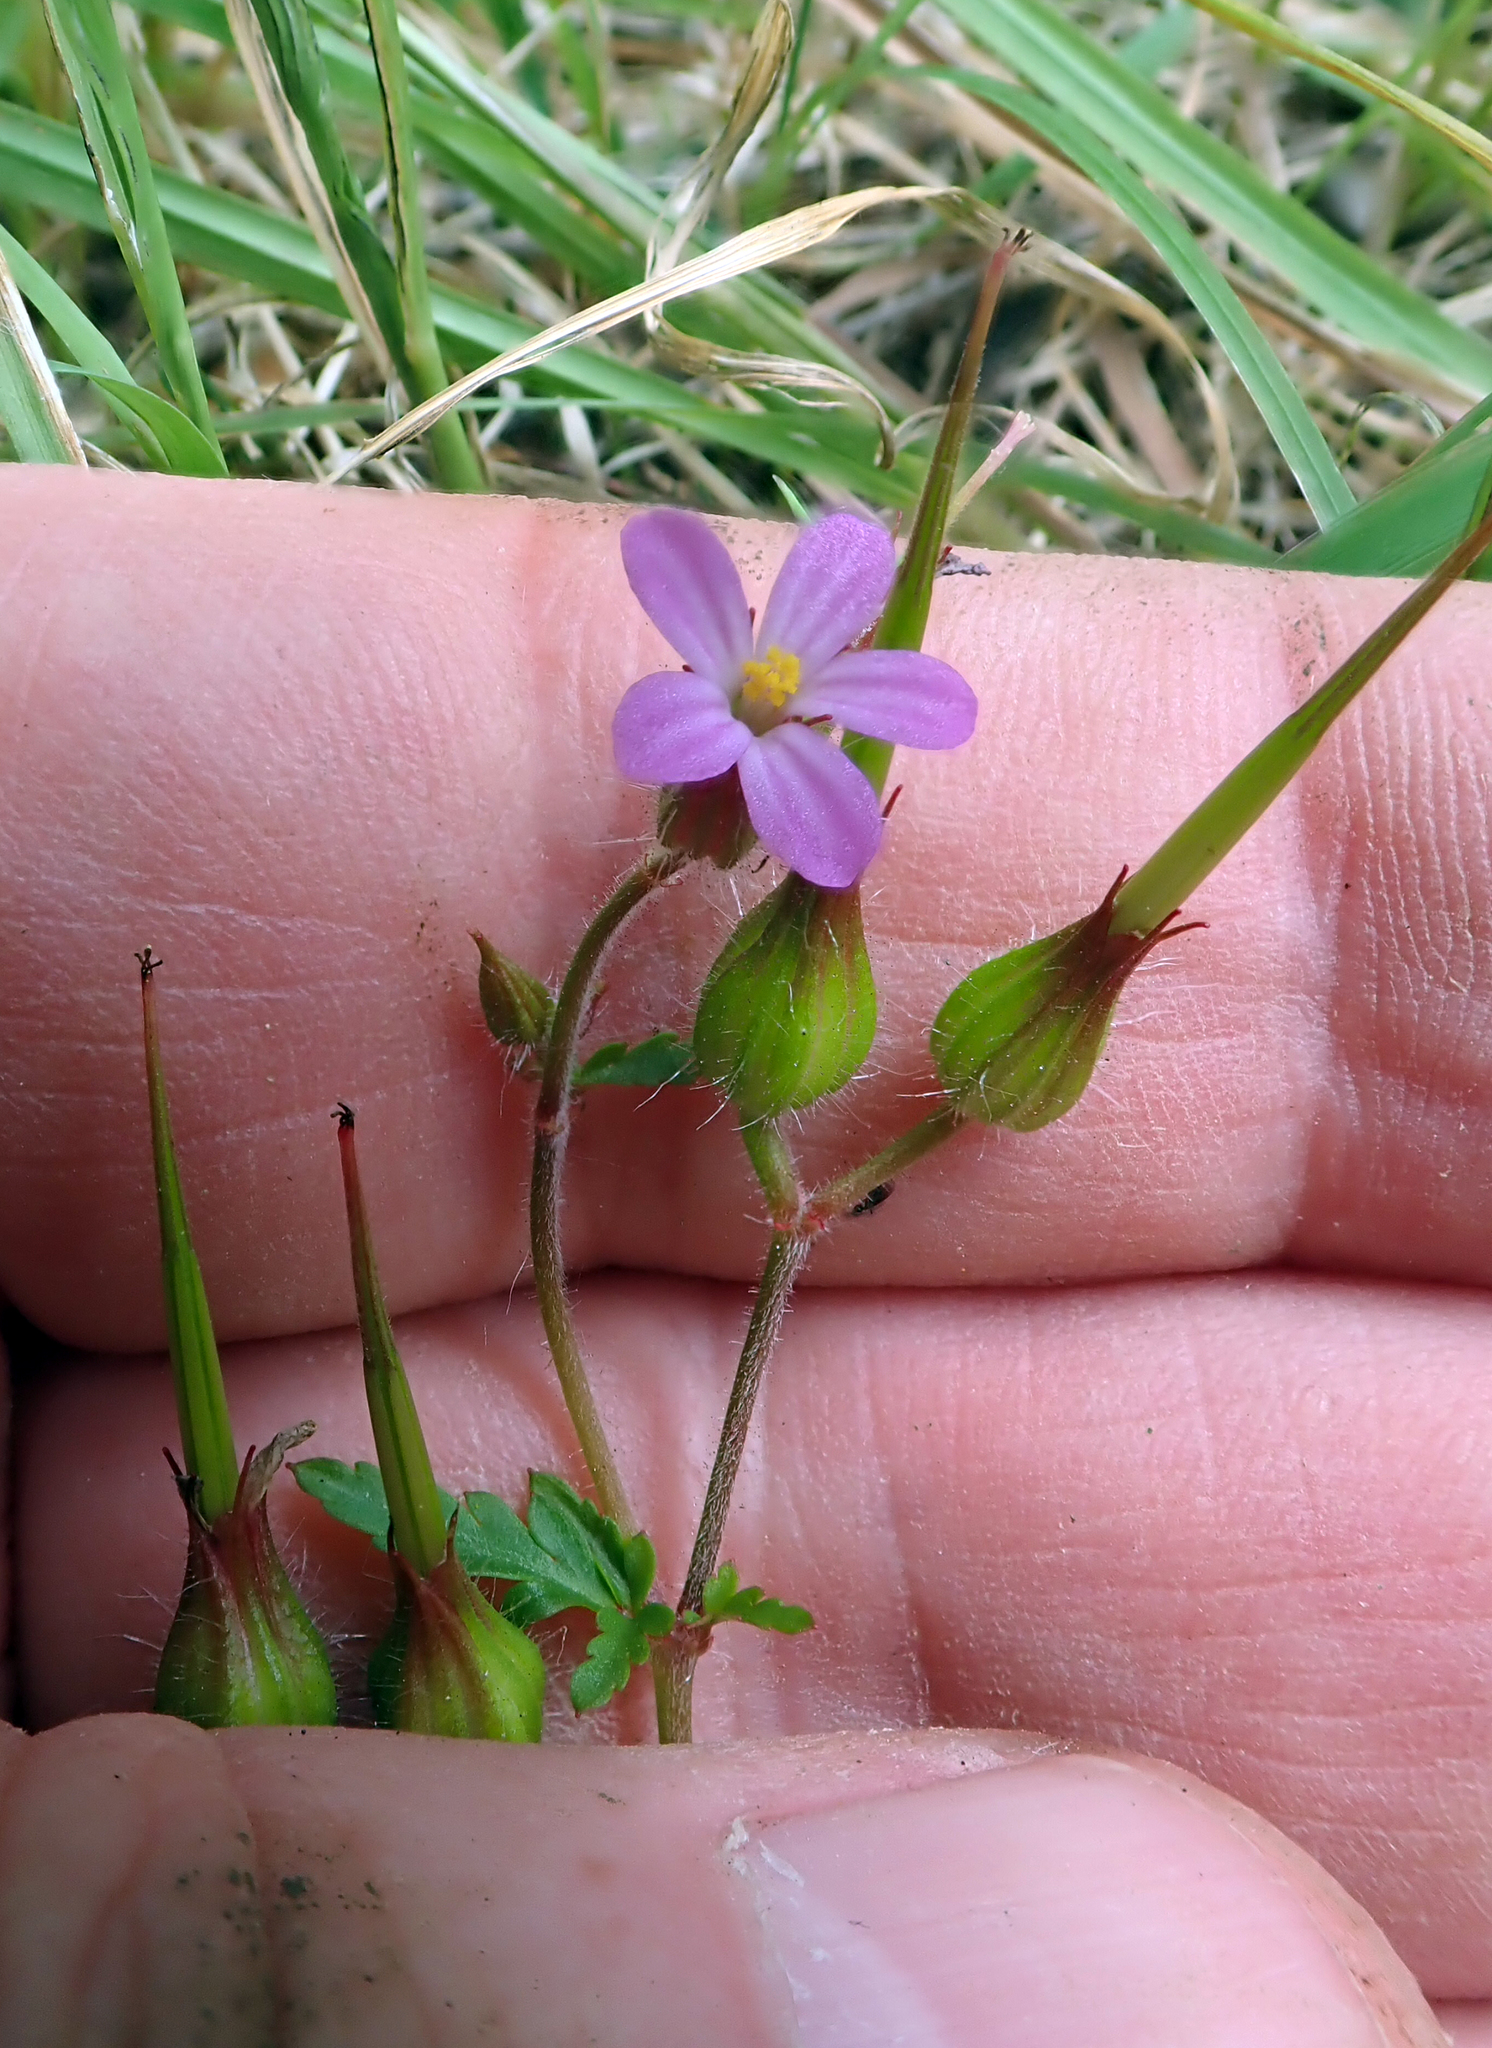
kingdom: Plantae
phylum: Tracheophyta
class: Magnoliopsida
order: Geraniales
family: Geraniaceae
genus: Geranium
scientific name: Geranium robertianum
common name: Herb-robert
